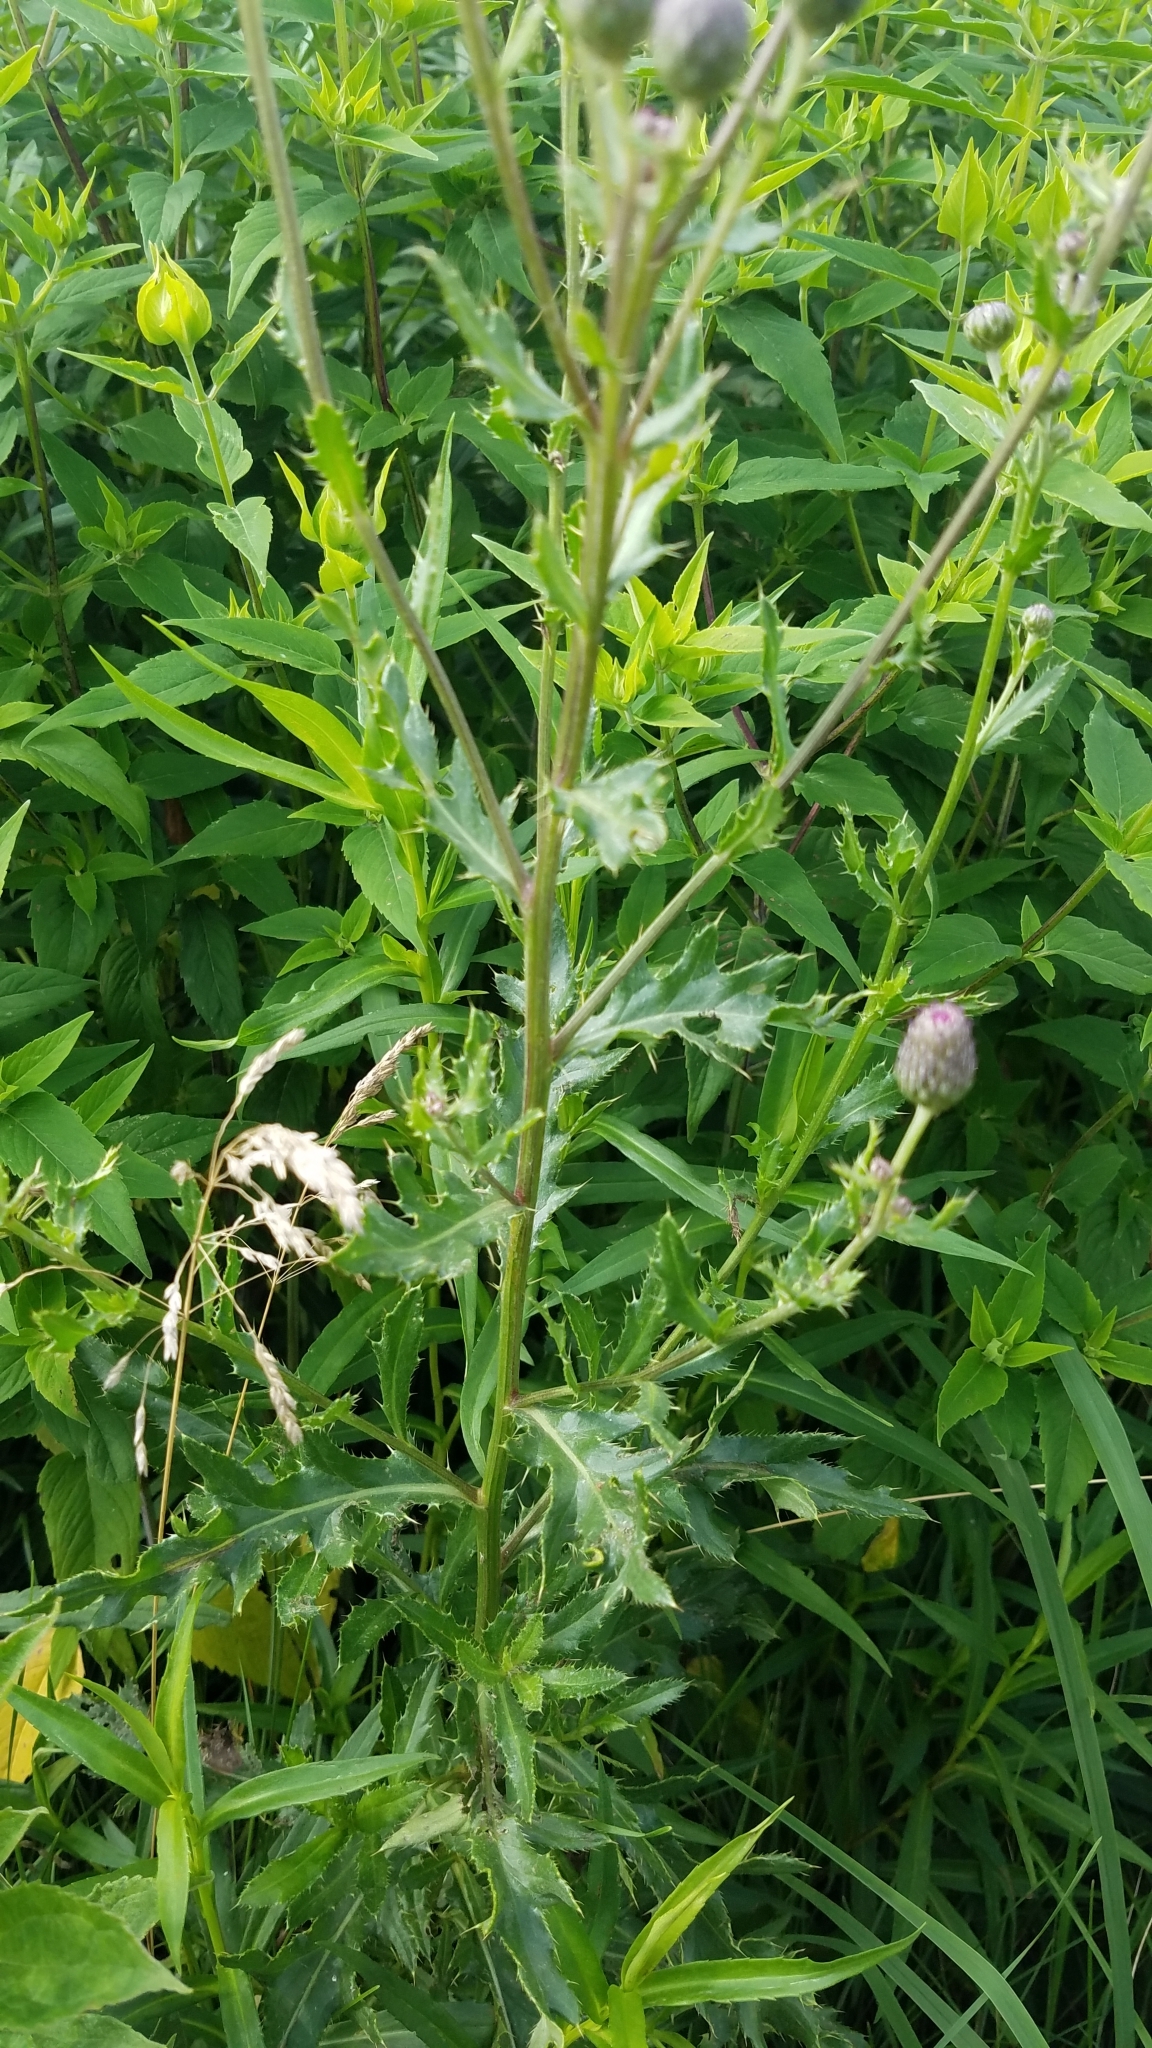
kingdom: Plantae
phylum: Tracheophyta
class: Magnoliopsida
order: Asterales
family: Asteraceae
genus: Cirsium
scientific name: Cirsium arvense
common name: Creeping thistle
